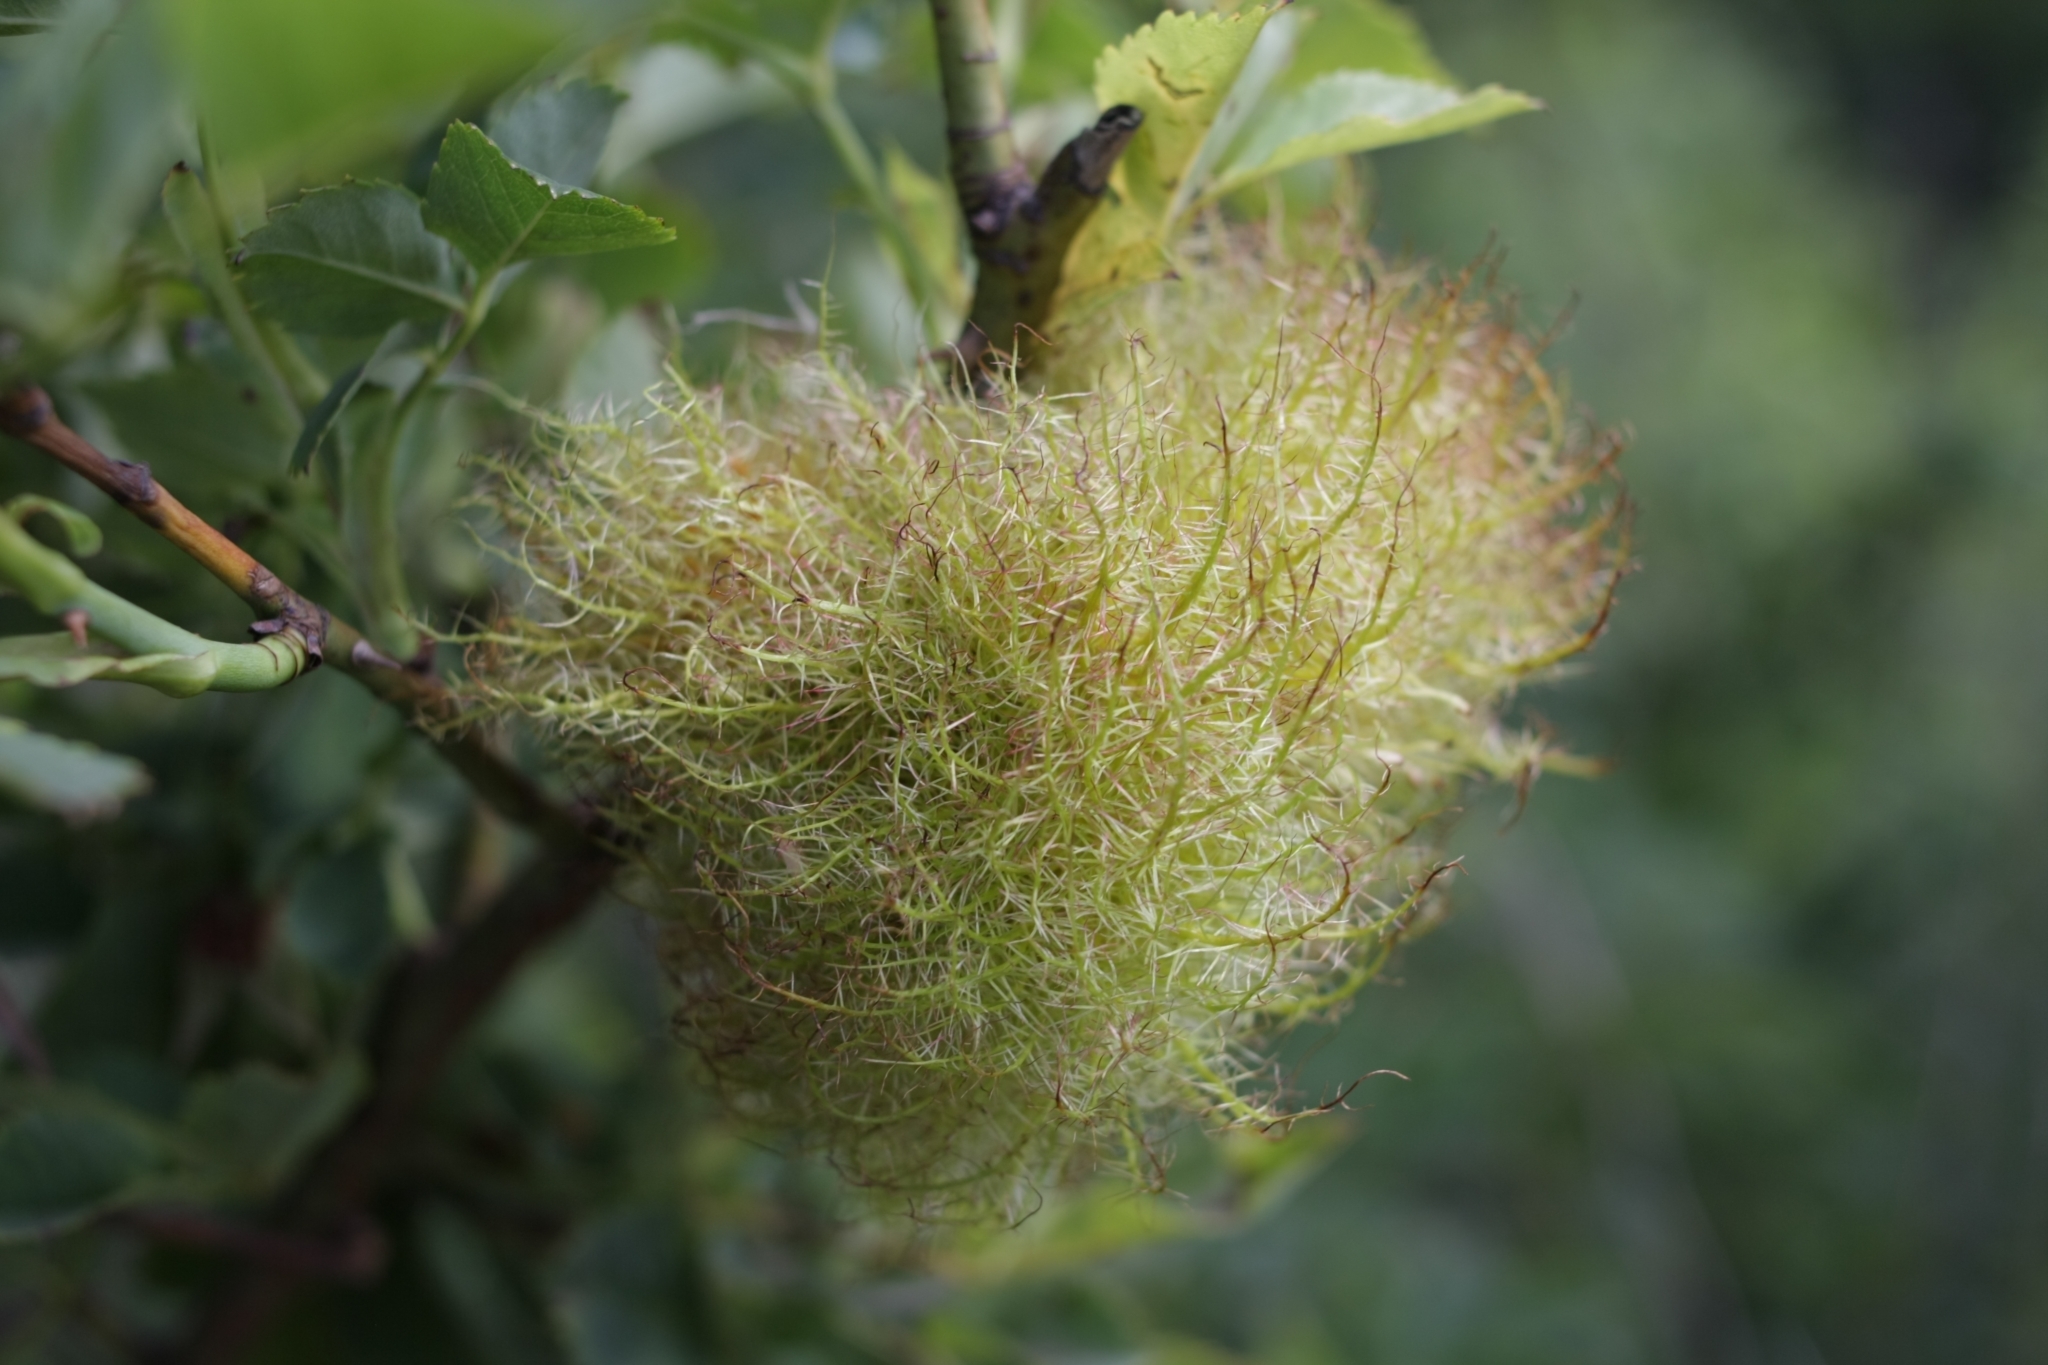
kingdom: Animalia
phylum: Arthropoda
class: Insecta
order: Hymenoptera
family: Cynipidae
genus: Diplolepis
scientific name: Diplolepis rosae
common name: Bedeguar gall
